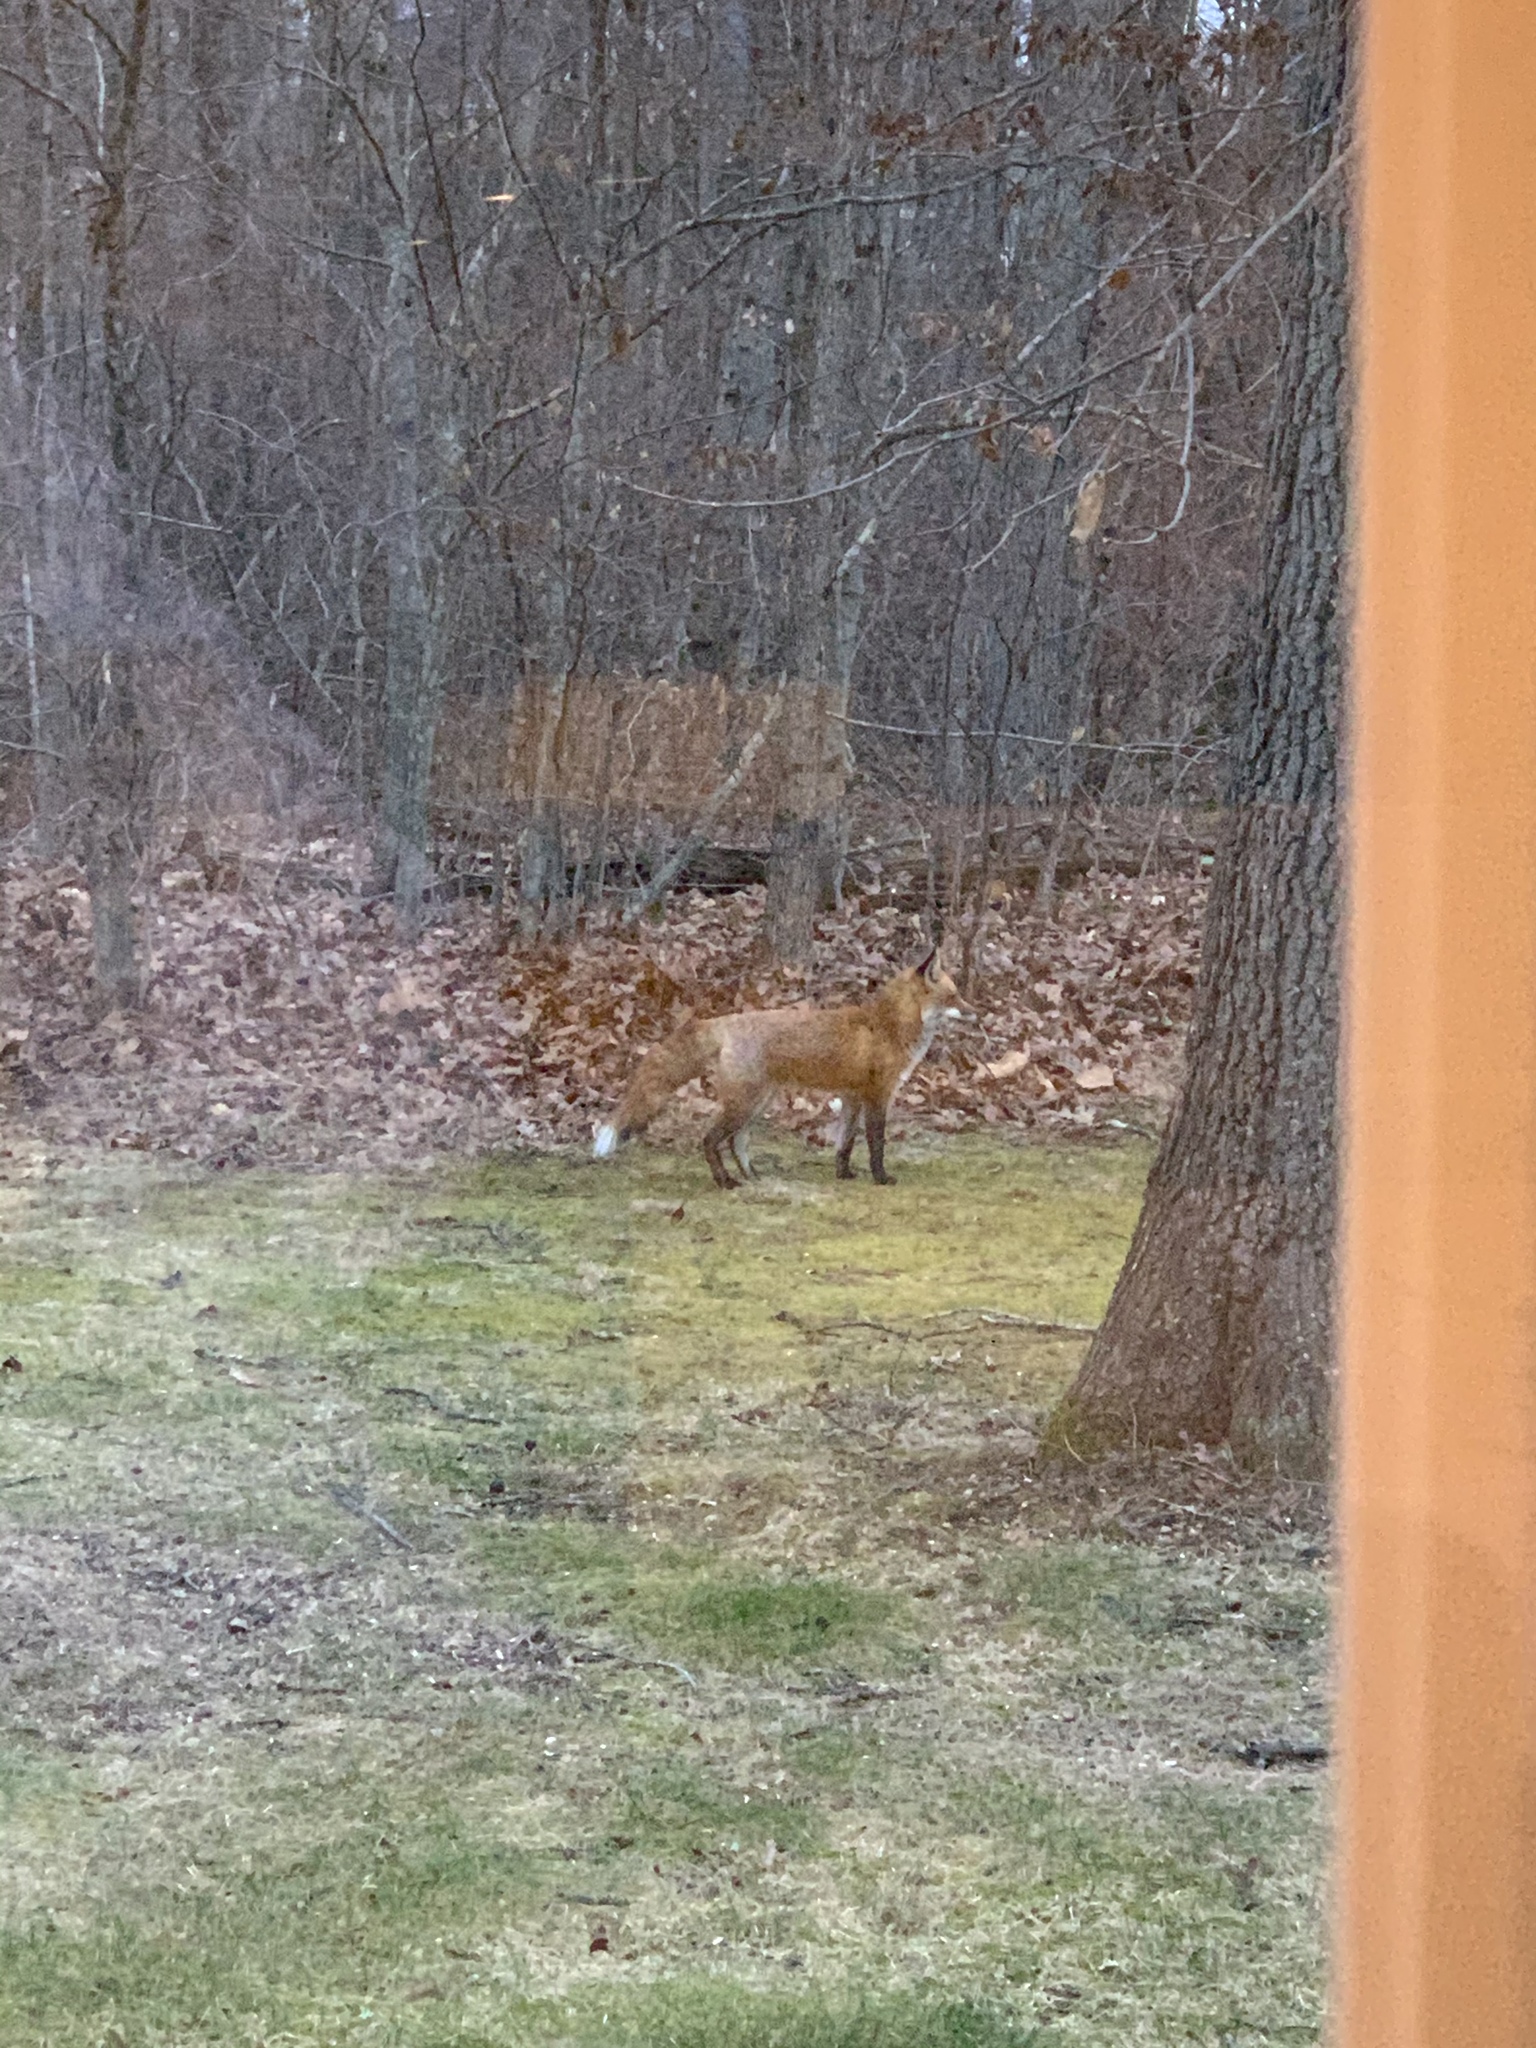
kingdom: Animalia
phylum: Chordata
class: Mammalia
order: Carnivora
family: Canidae
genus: Vulpes
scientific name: Vulpes vulpes
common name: Red fox
